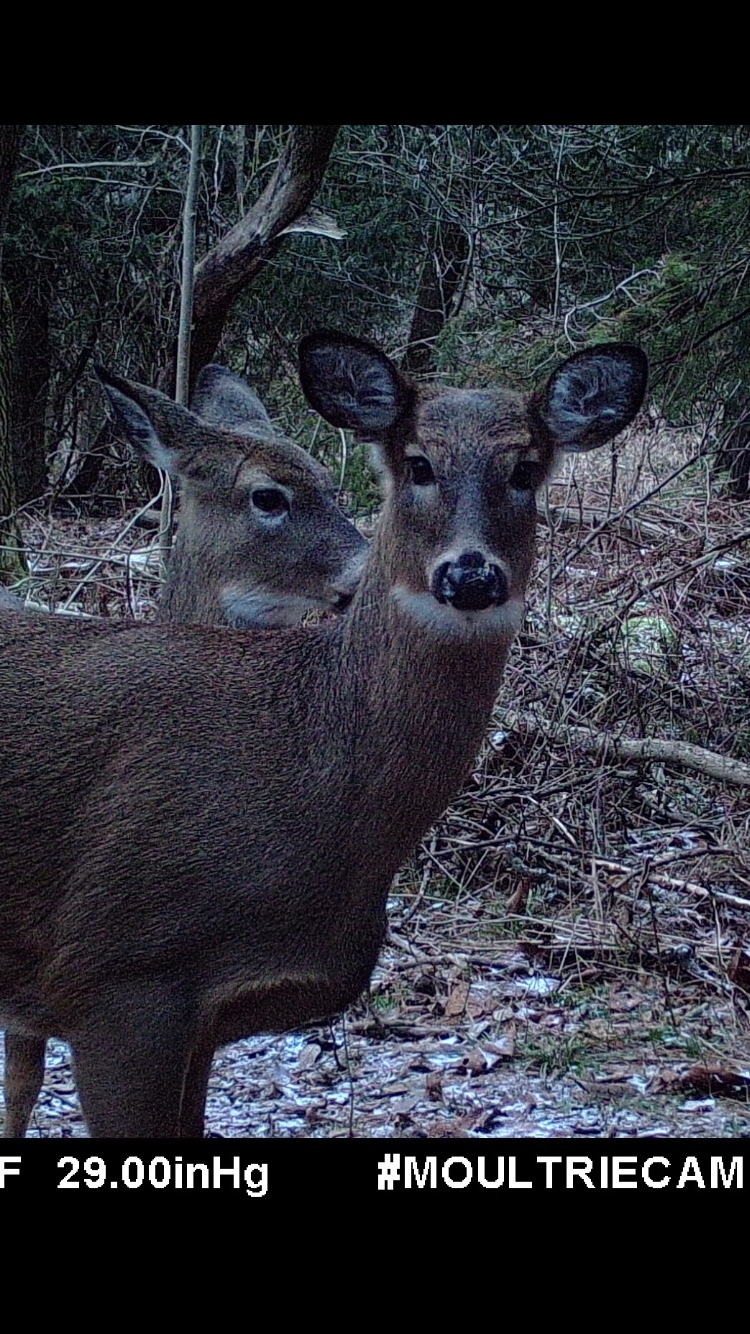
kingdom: Animalia
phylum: Chordata
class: Mammalia
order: Artiodactyla
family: Cervidae
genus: Odocoileus
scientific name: Odocoileus virginianus
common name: White-tailed deer
